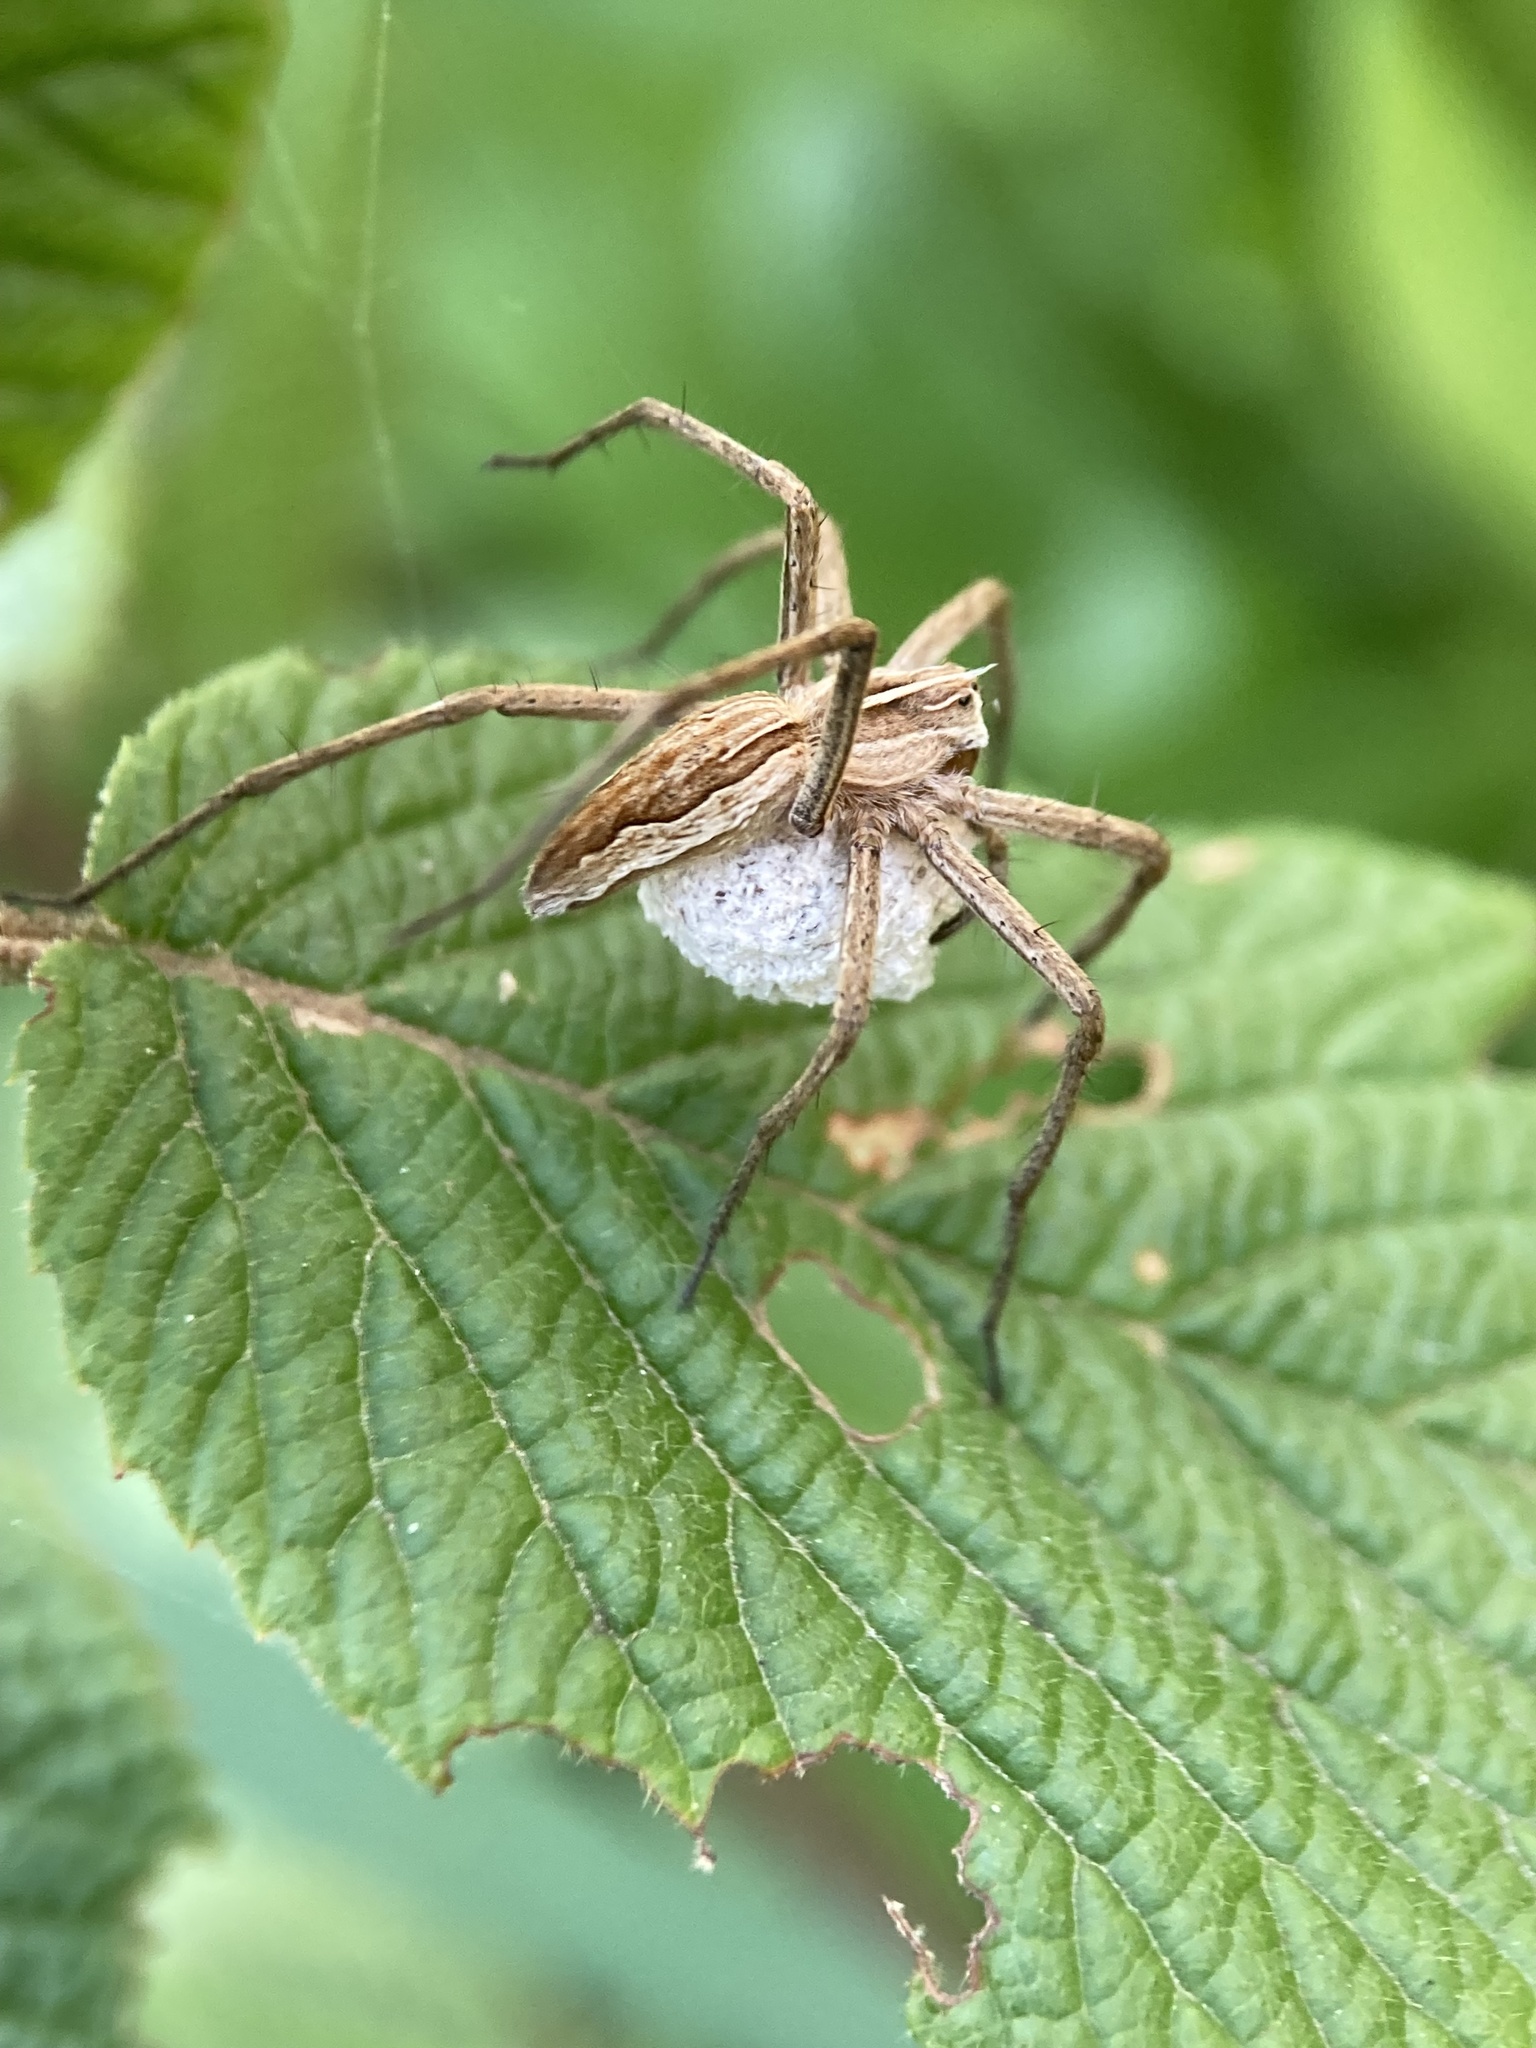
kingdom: Animalia
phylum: Arthropoda
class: Arachnida
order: Araneae
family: Pisauridae
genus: Pisaura
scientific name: Pisaura mirabilis
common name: Tent spider
